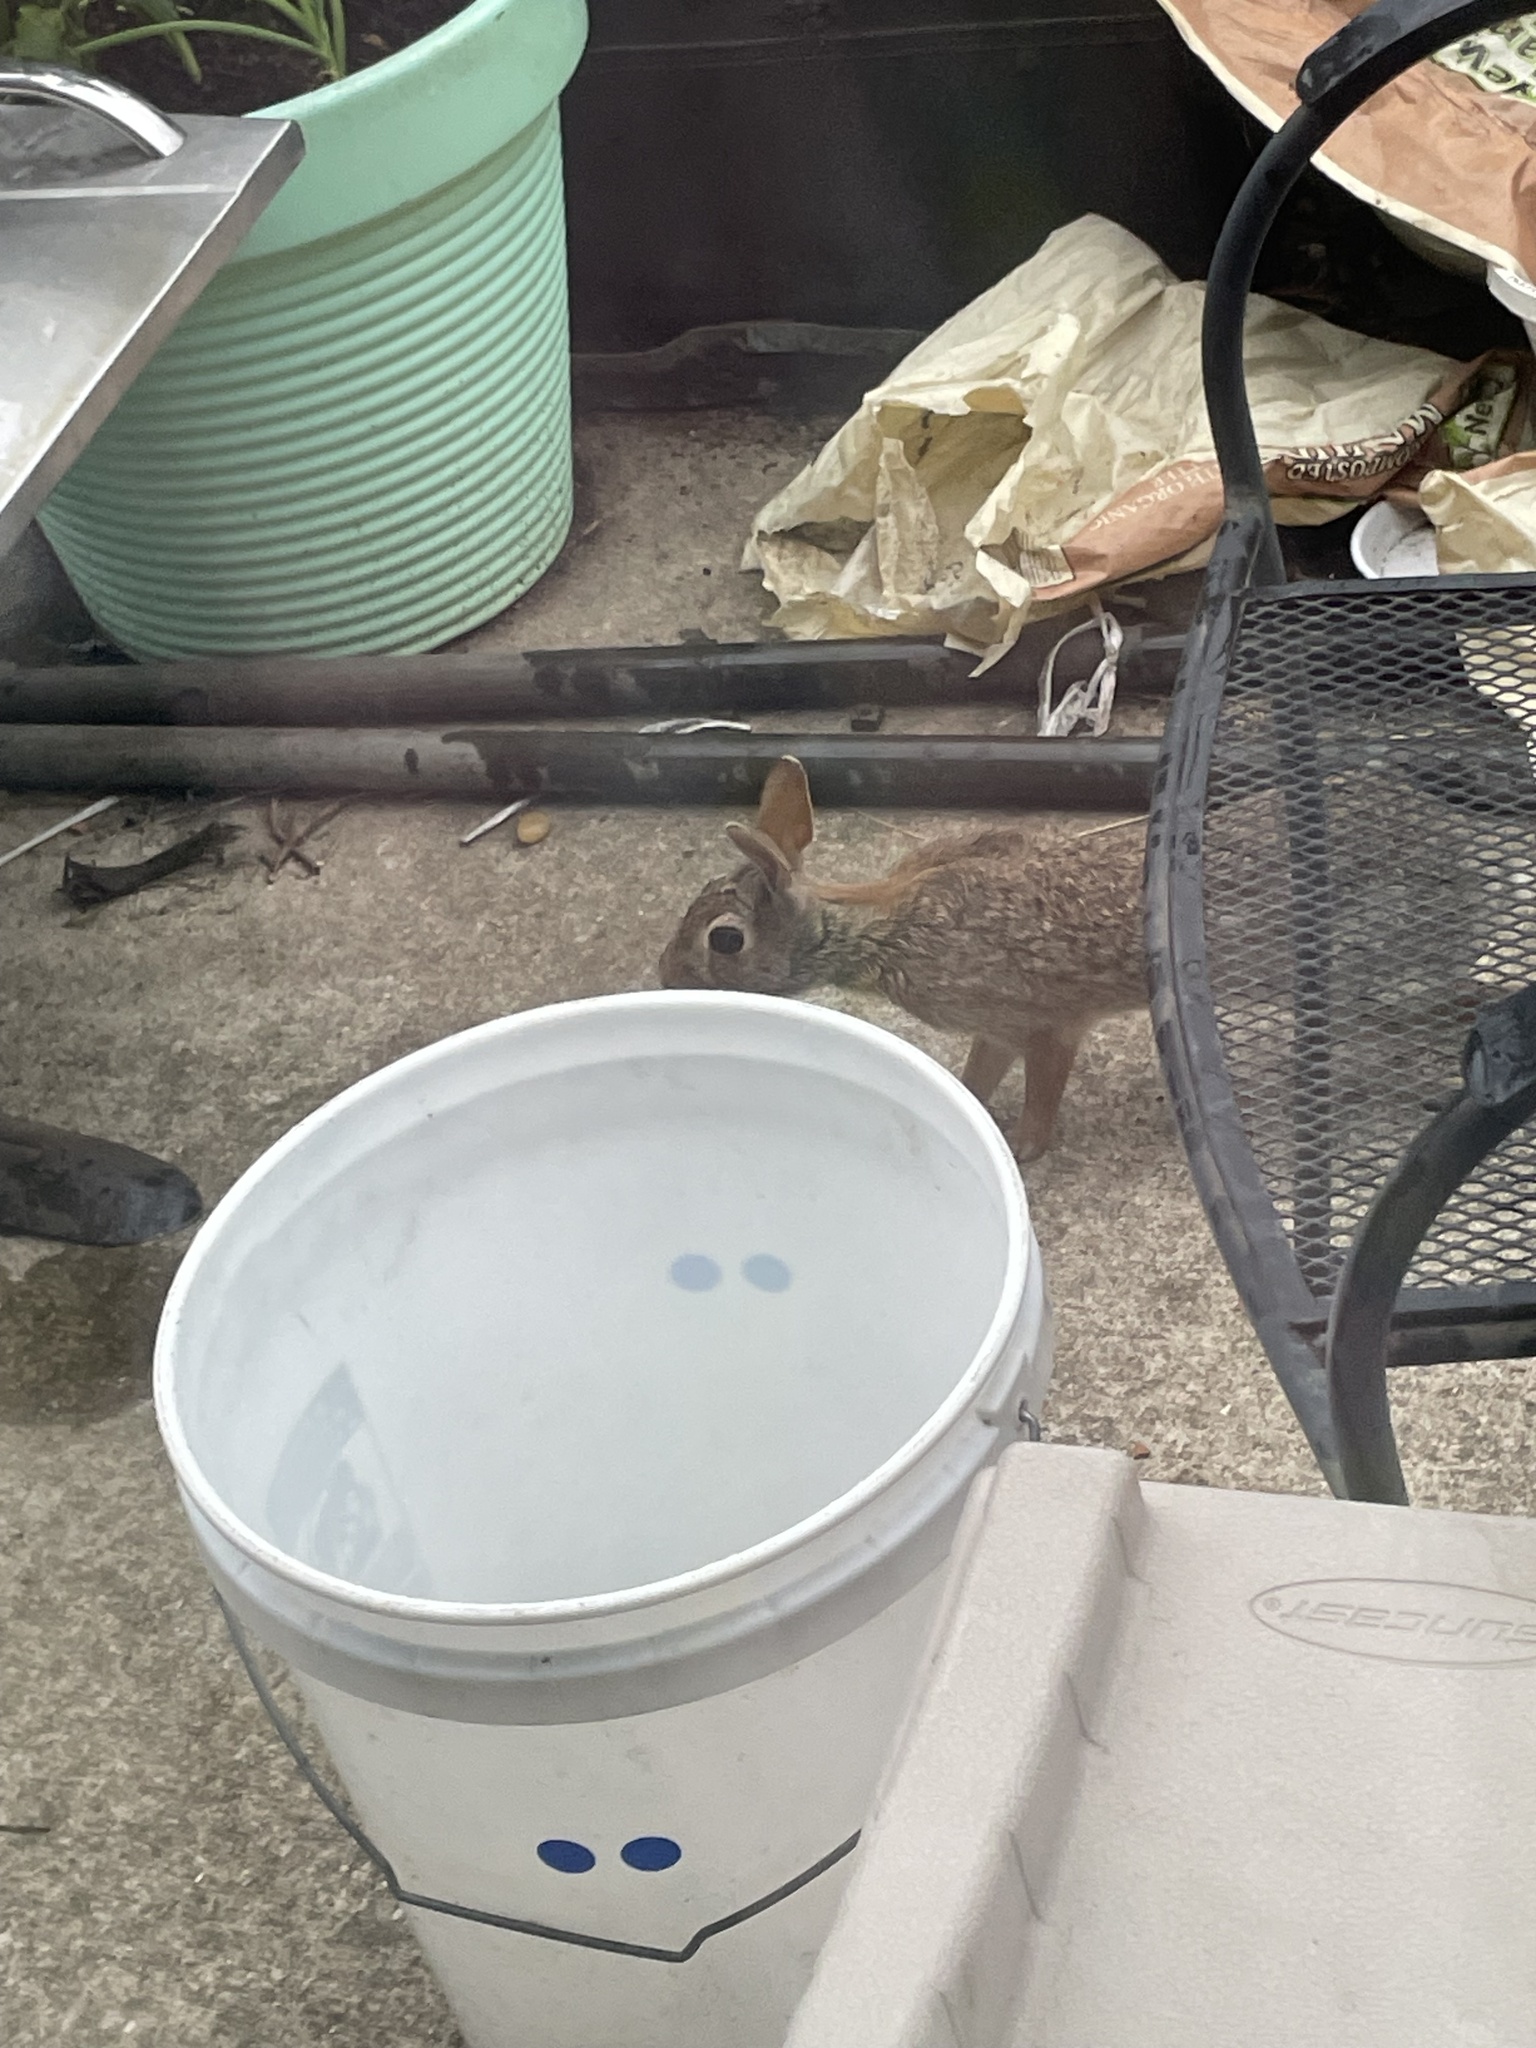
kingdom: Animalia
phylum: Chordata
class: Mammalia
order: Lagomorpha
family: Leporidae
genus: Sylvilagus
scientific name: Sylvilagus floridanus
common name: Eastern cottontail
